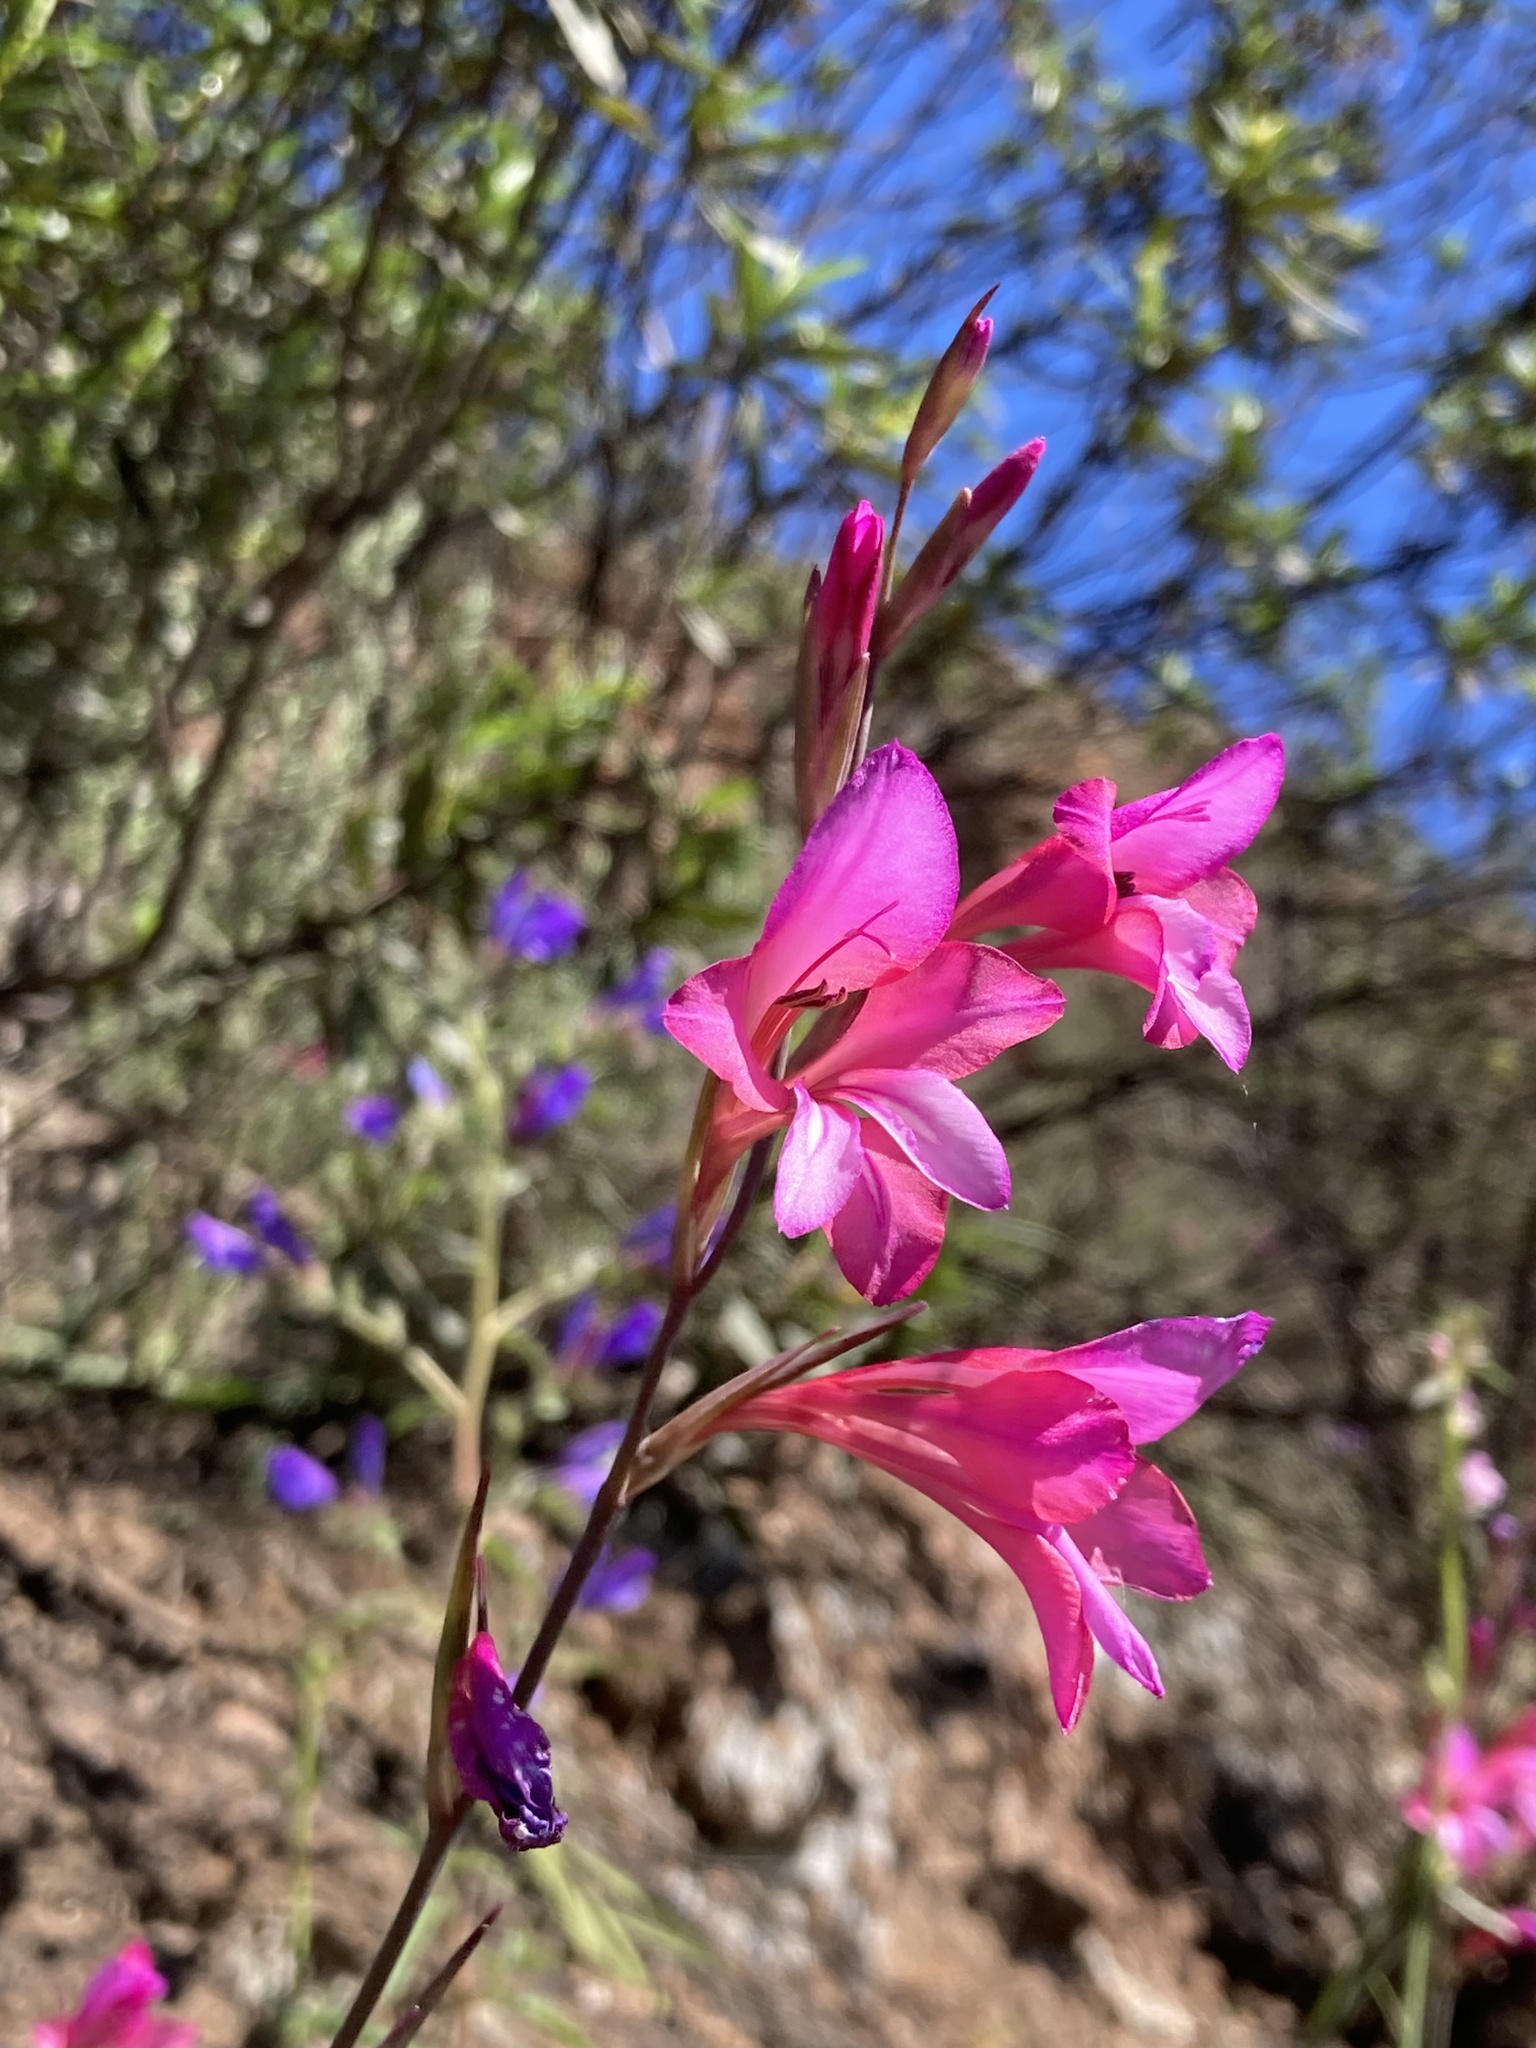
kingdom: Plantae
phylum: Tracheophyta
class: Liliopsida
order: Asparagales
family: Iridaceae
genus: Gladiolus
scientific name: Gladiolus illyricus
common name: Wild gladiolus
